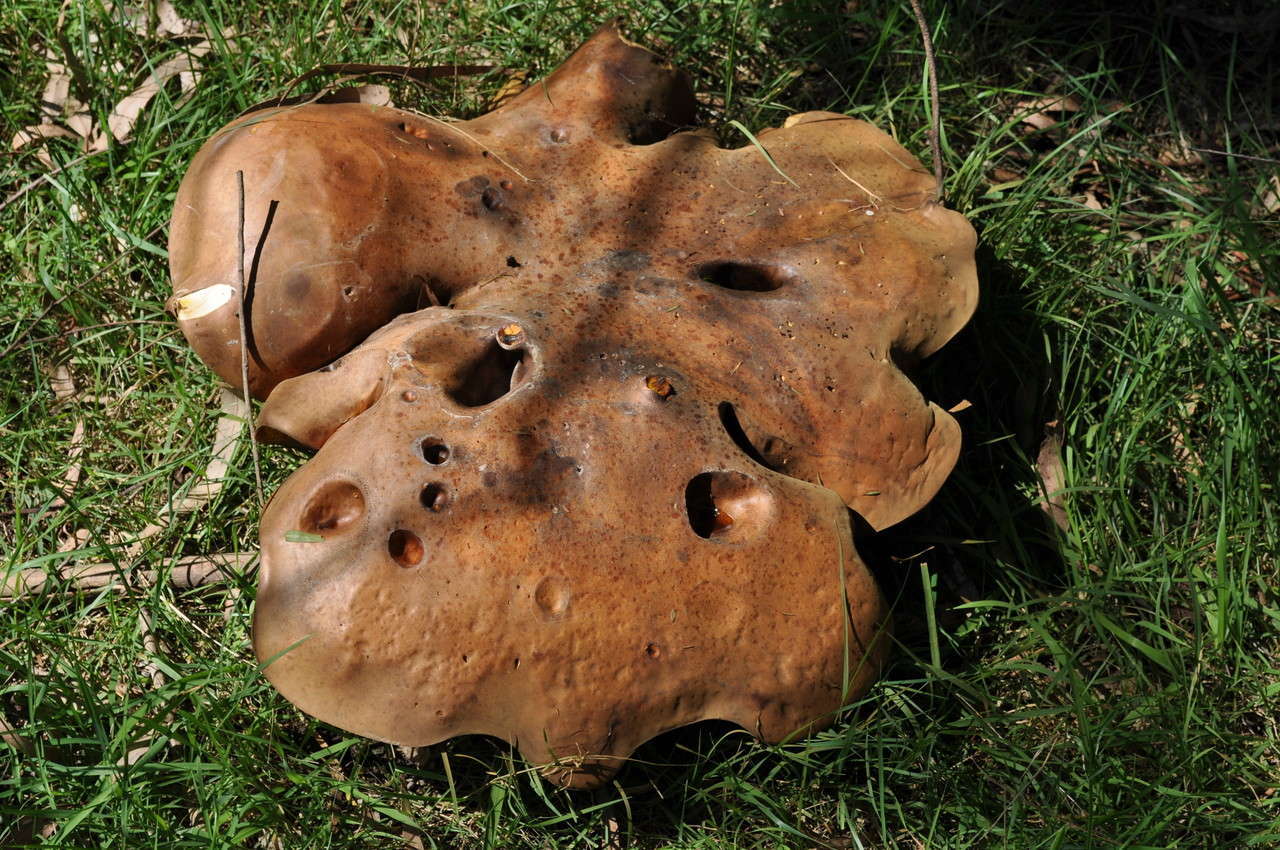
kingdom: Fungi
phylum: Basidiomycota
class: Agaricomycetes
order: Boletales
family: Boletinellaceae
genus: Phlebopus
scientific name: Phlebopus marginatus
